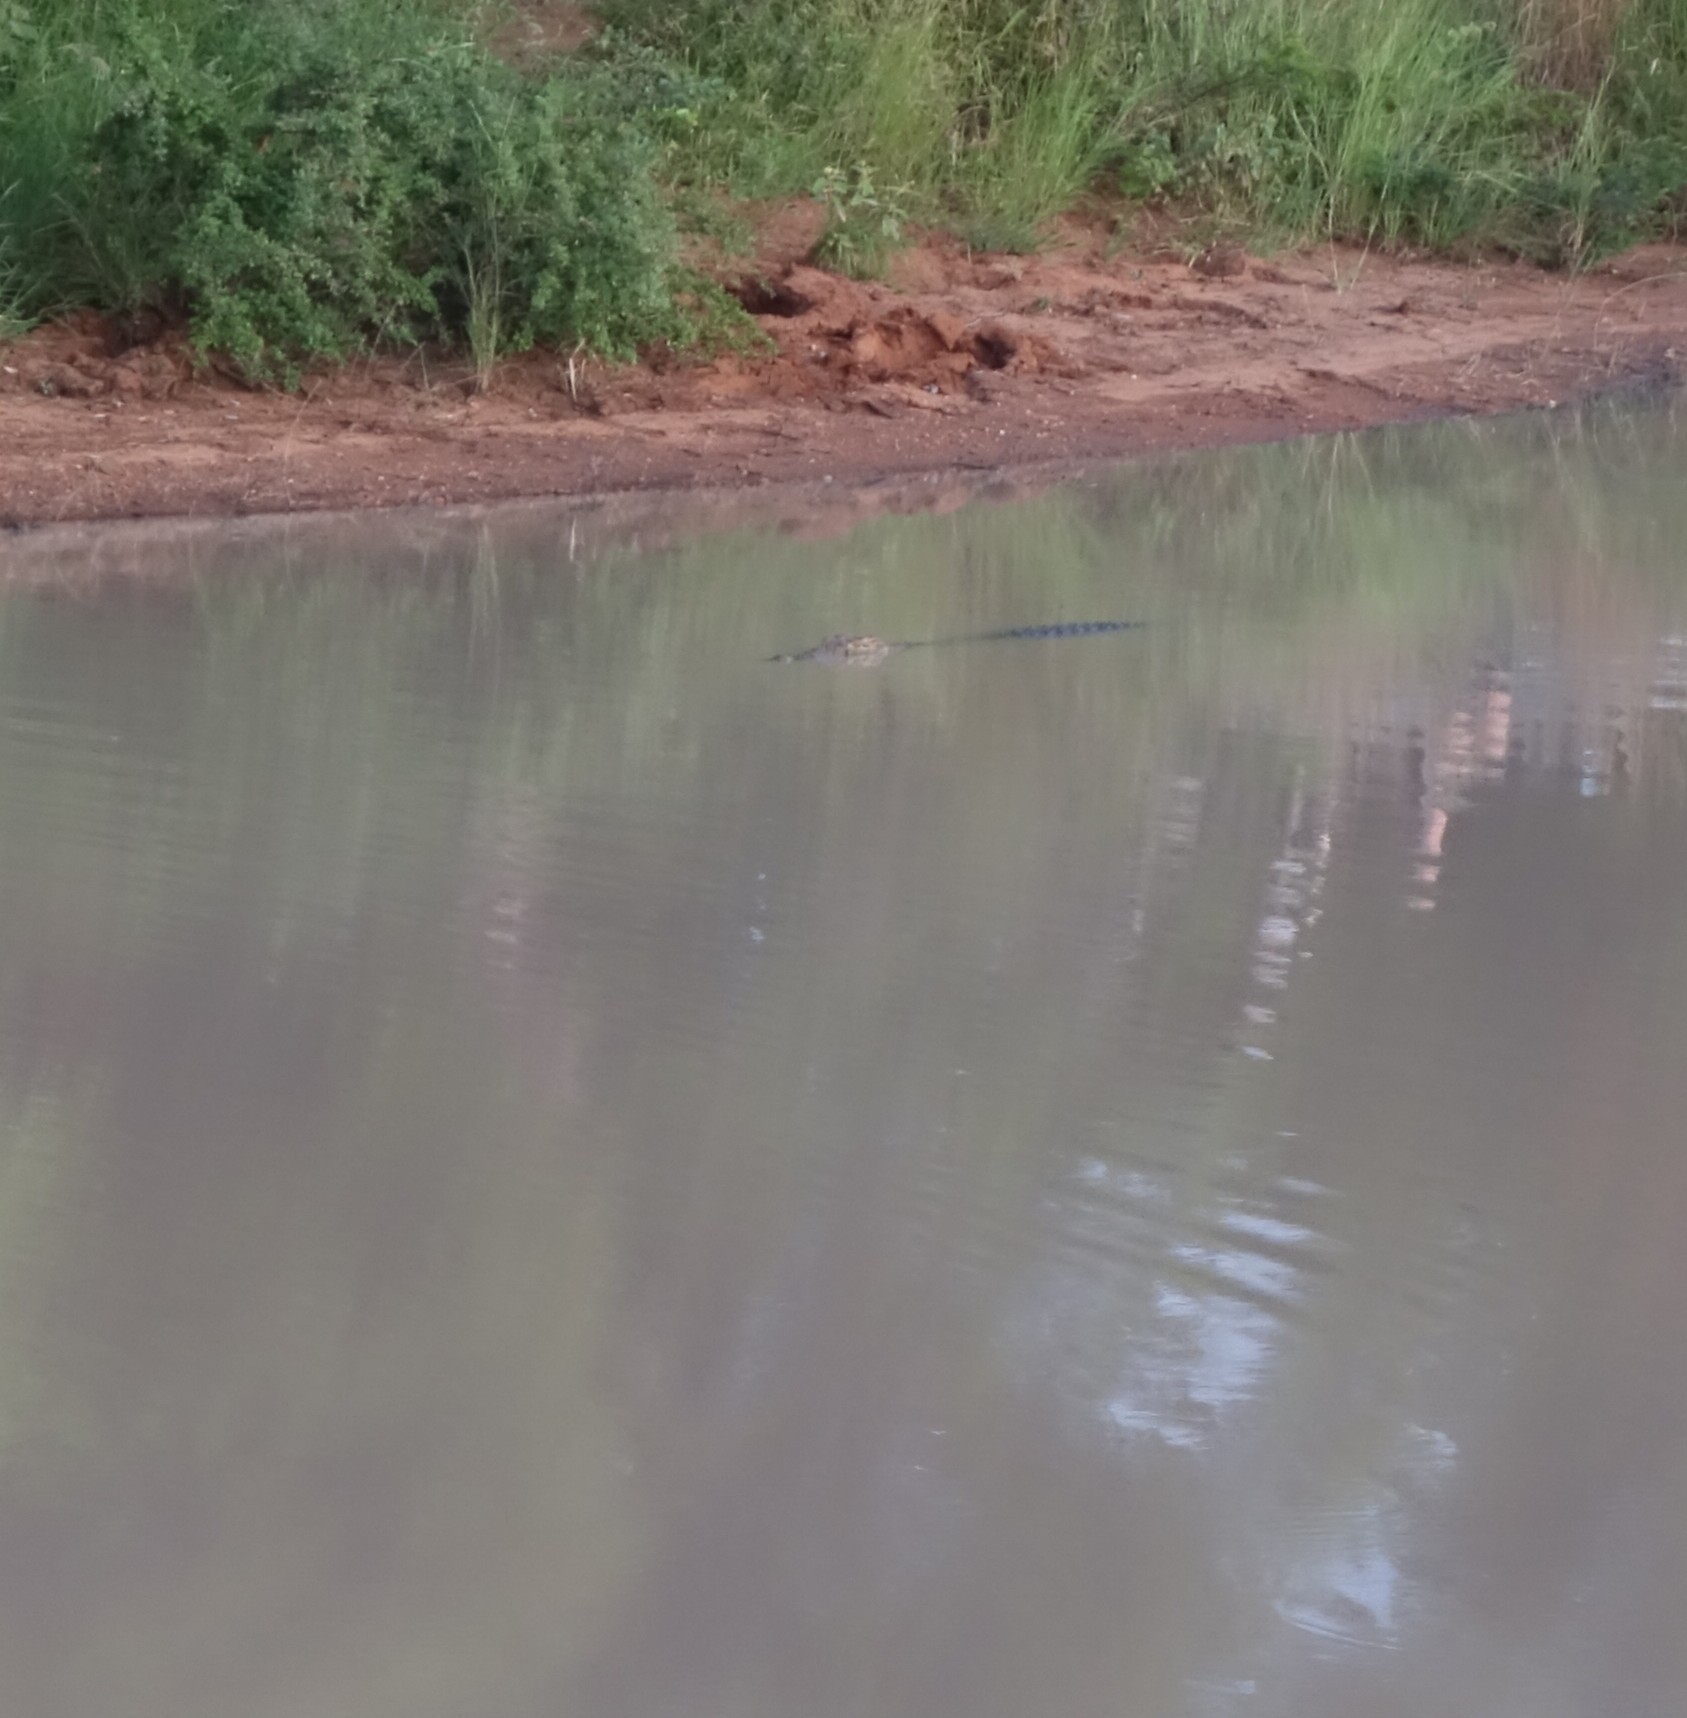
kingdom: Animalia
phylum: Chordata
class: Crocodylia
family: Crocodylidae
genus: Crocodylus
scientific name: Crocodylus niloticus
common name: Nile crocodile
